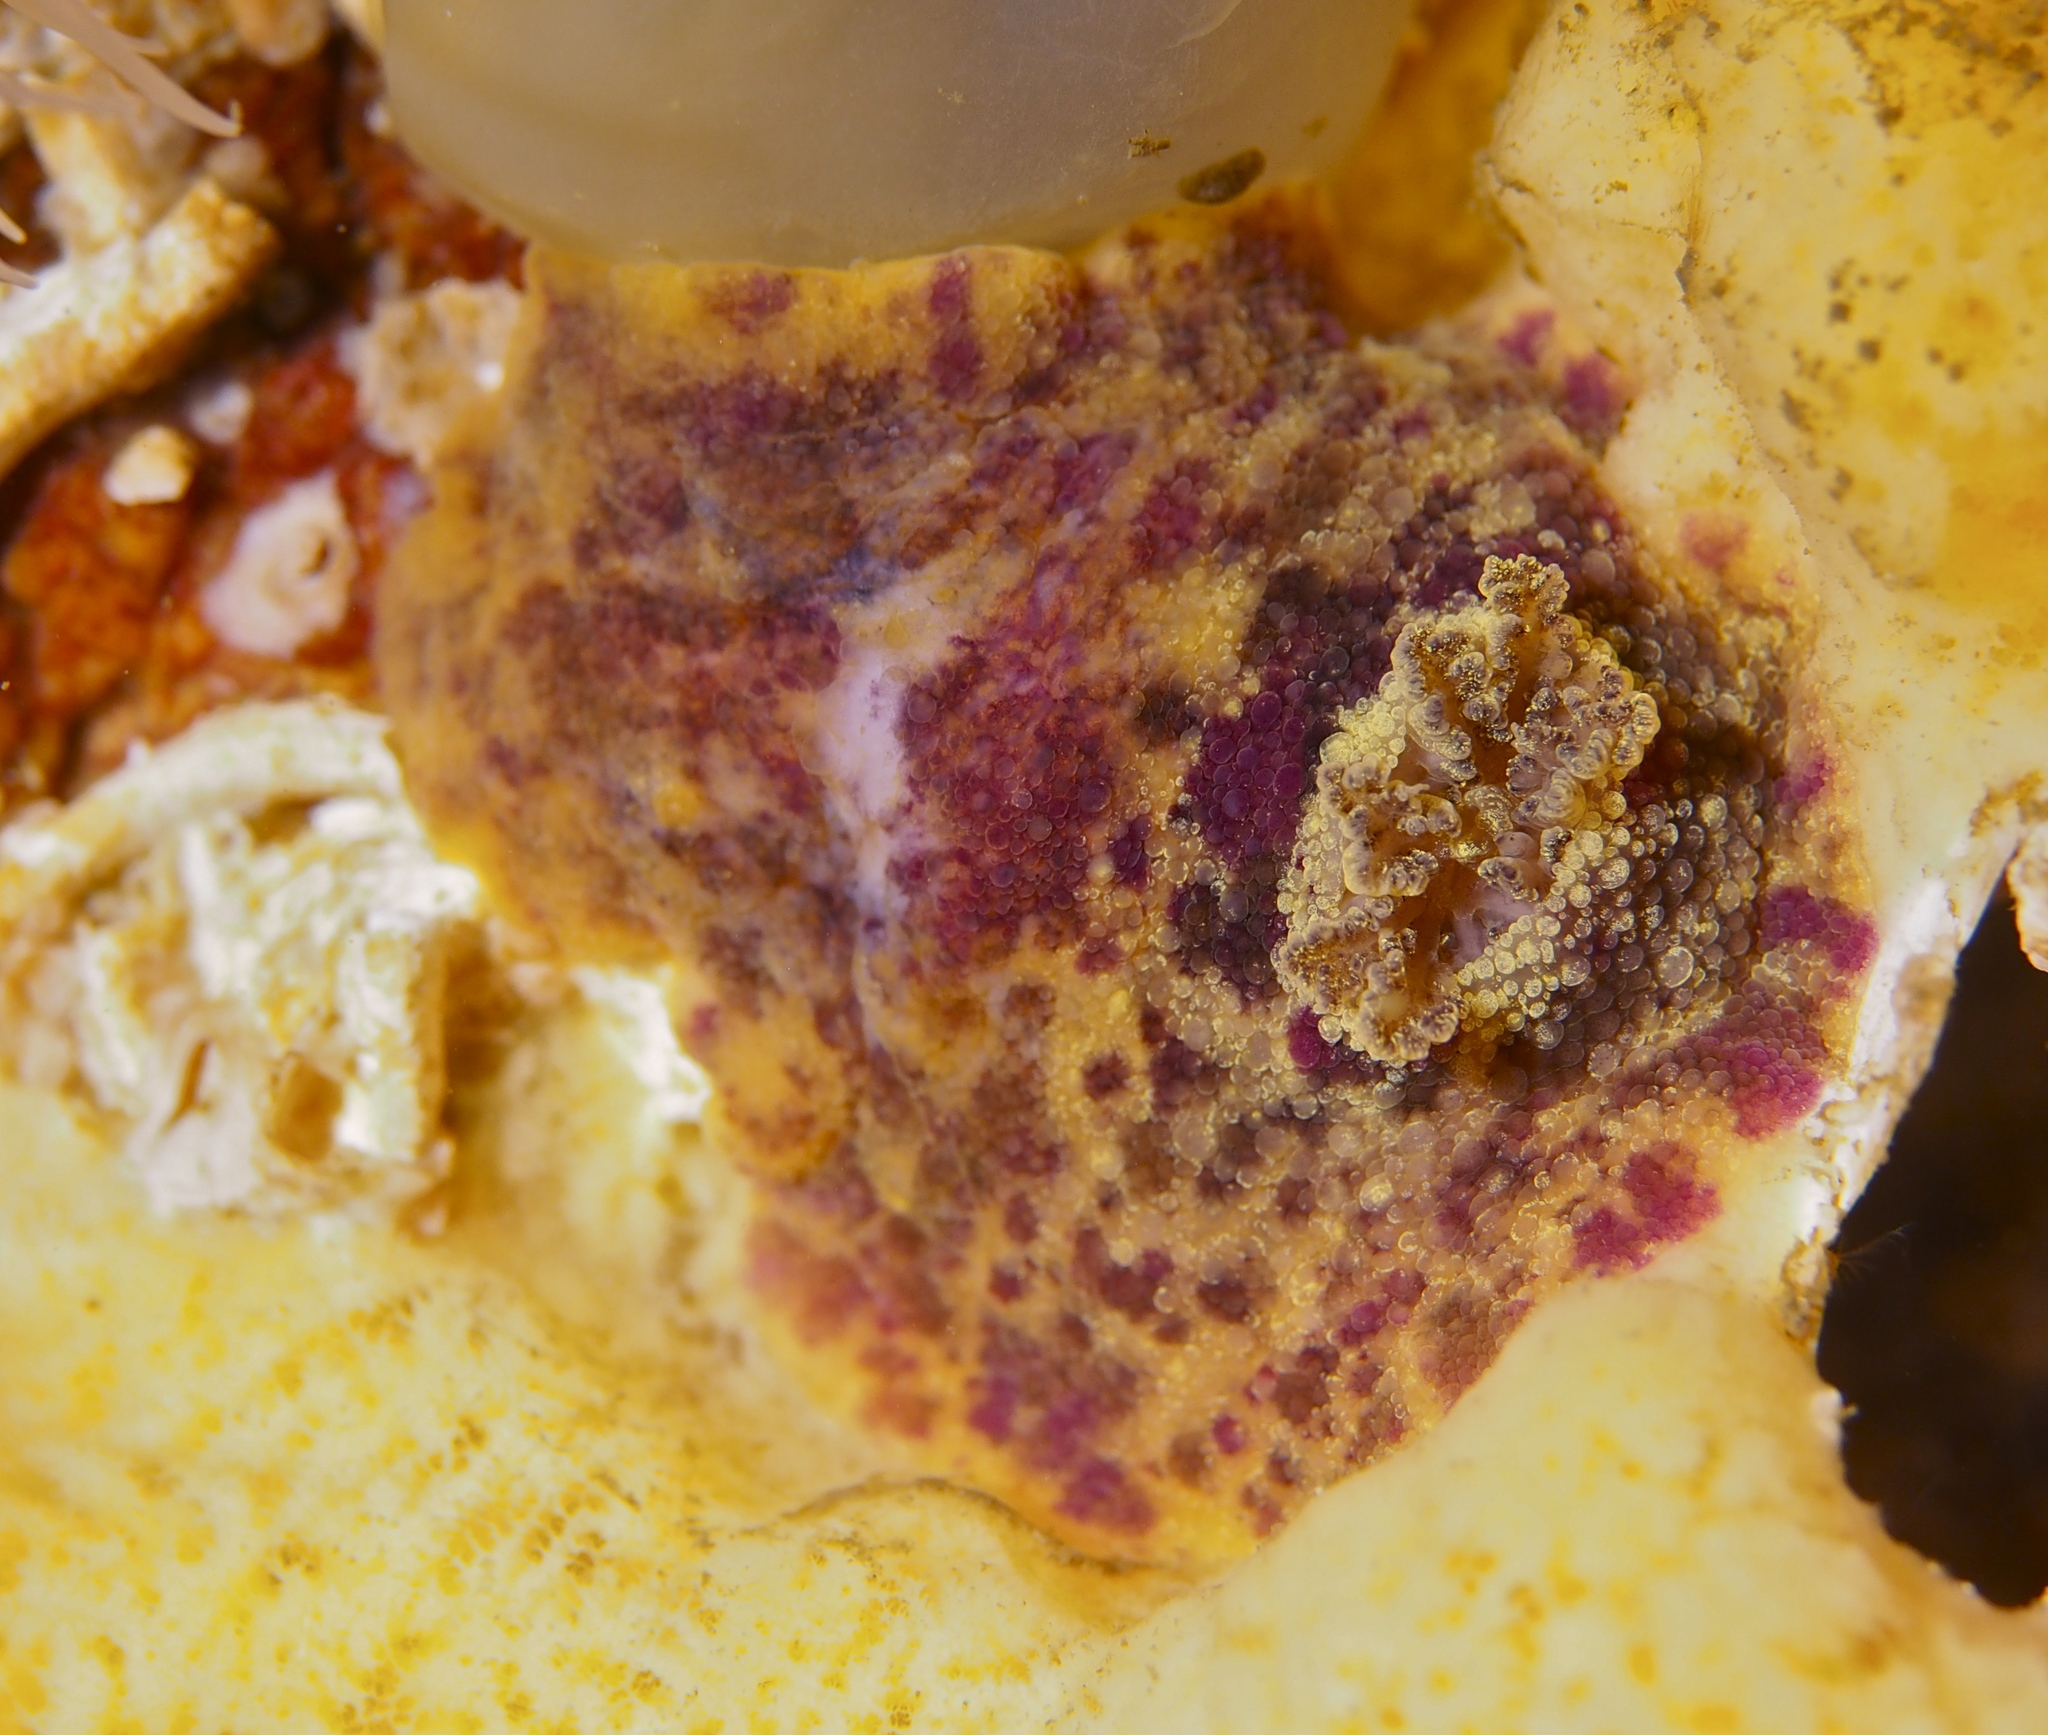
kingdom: Animalia
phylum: Mollusca
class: Gastropoda
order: Nudibranchia
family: Dorididae
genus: Doris
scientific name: Doris pseudoargus
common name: Sea lemon
